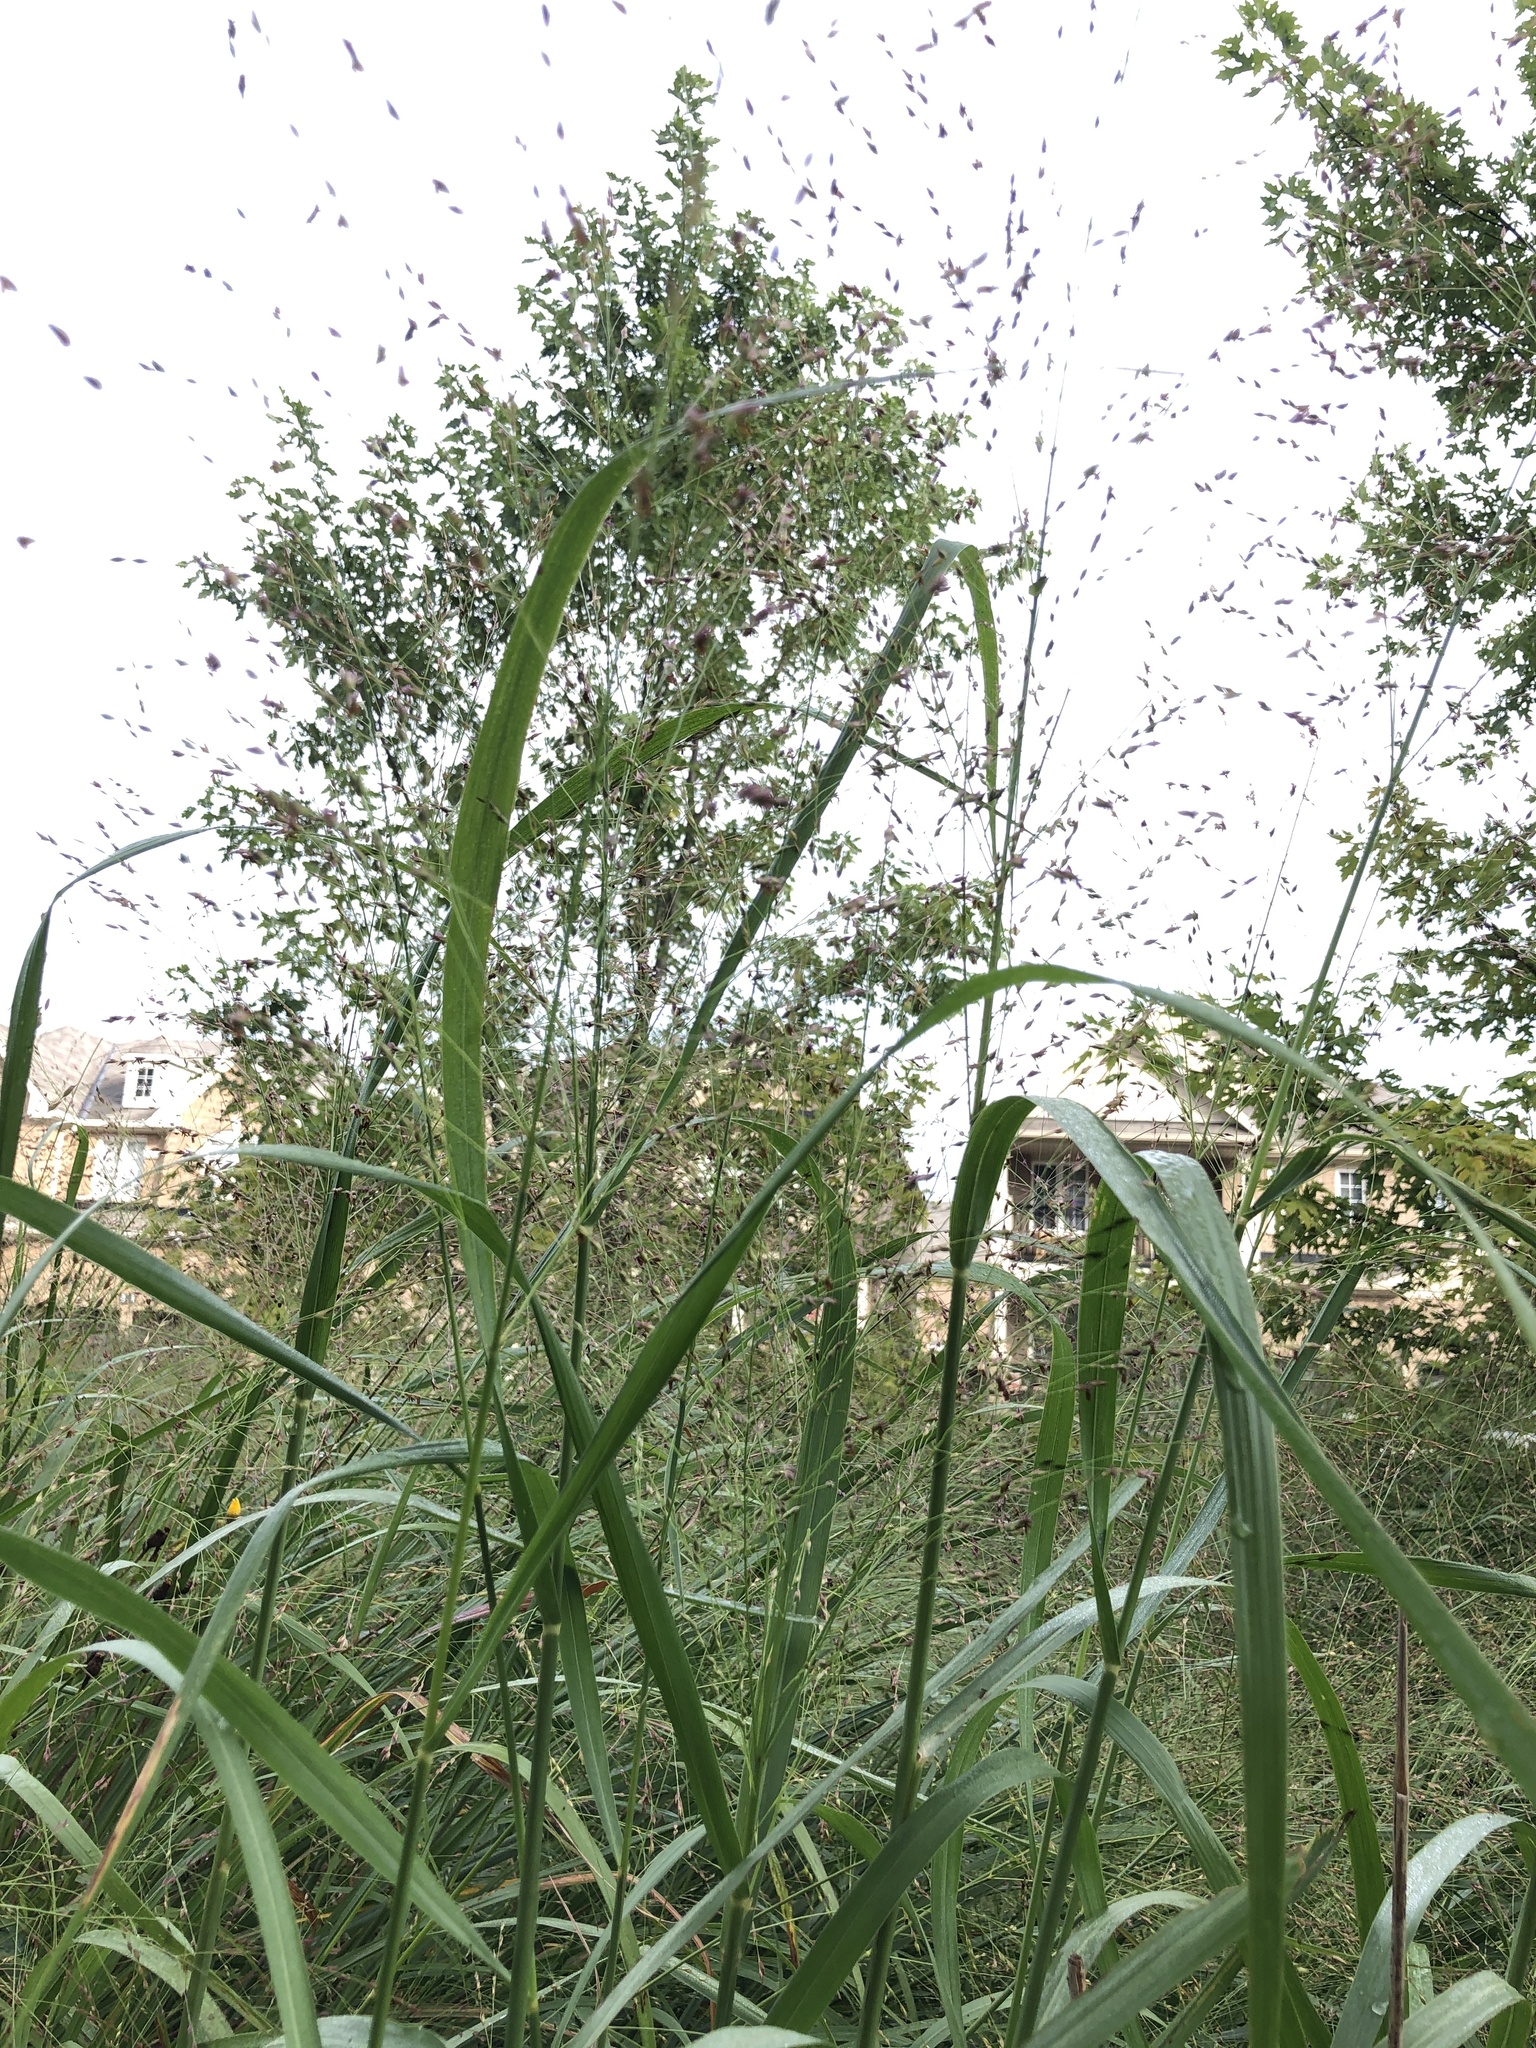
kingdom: Plantae
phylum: Tracheophyta
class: Liliopsida
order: Poales
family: Poaceae
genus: Panicum
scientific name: Panicum virgatum
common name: Switchgrass
